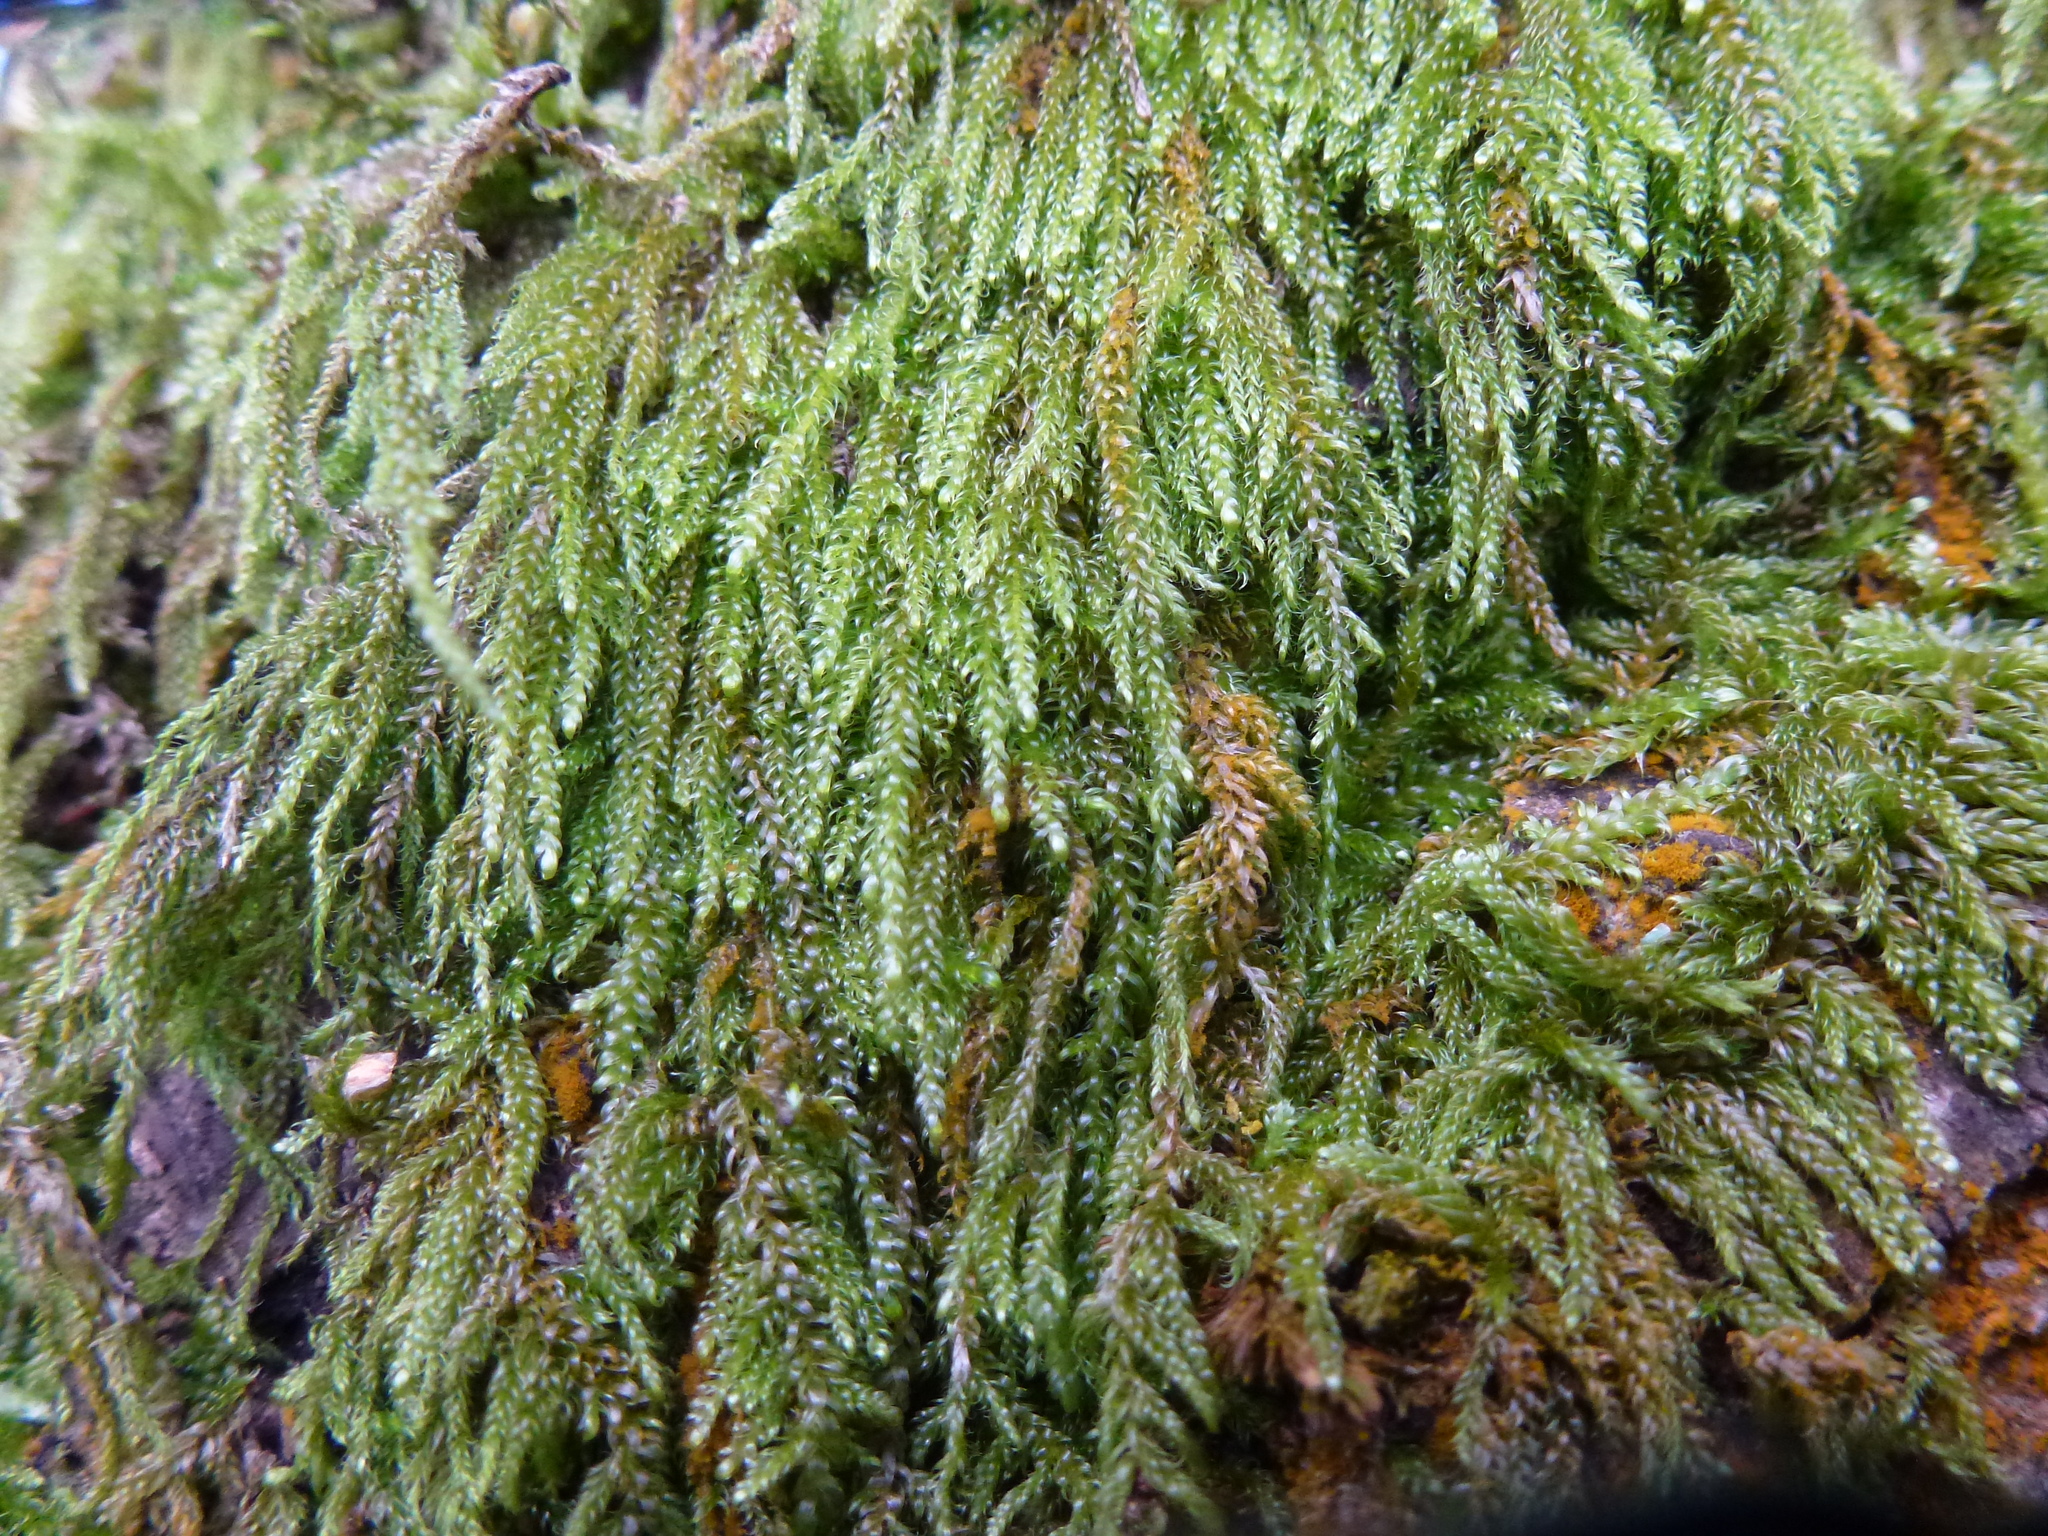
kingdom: Plantae
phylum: Bryophyta
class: Bryopsida
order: Hypnales
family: Hypnaceae
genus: Hypnum
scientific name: Hypnum cupressiforme
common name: Cypress-leaved plait-moss
